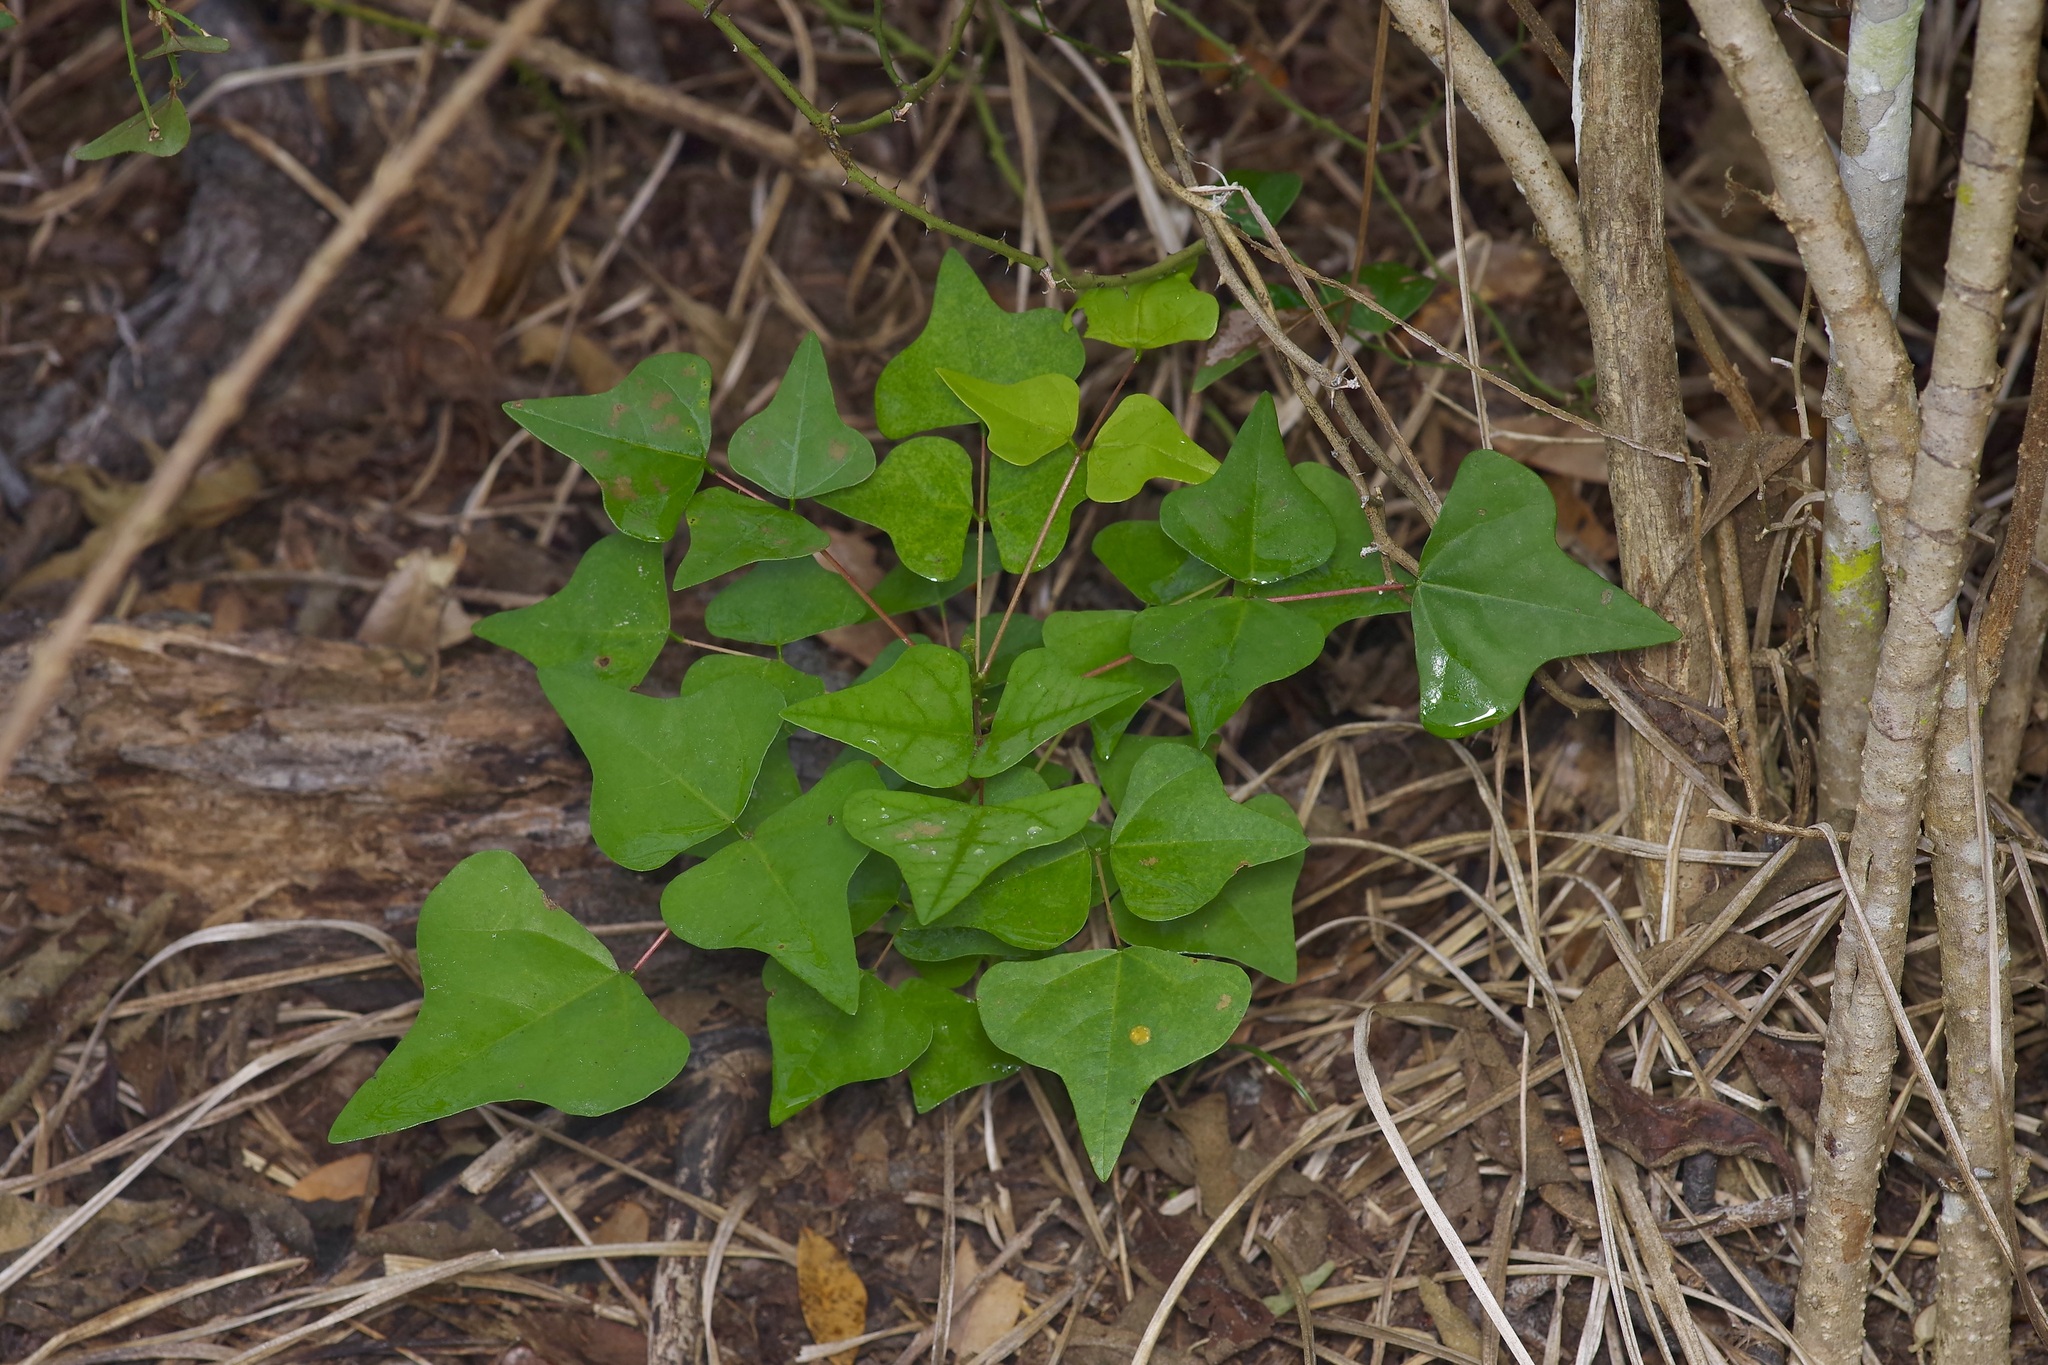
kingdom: Plantae
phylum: Tracheophyta
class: Magnoliopsida
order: Fabales
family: Fabaceae
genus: Erythrina
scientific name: Erythrina herbacea
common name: Coral-bean
